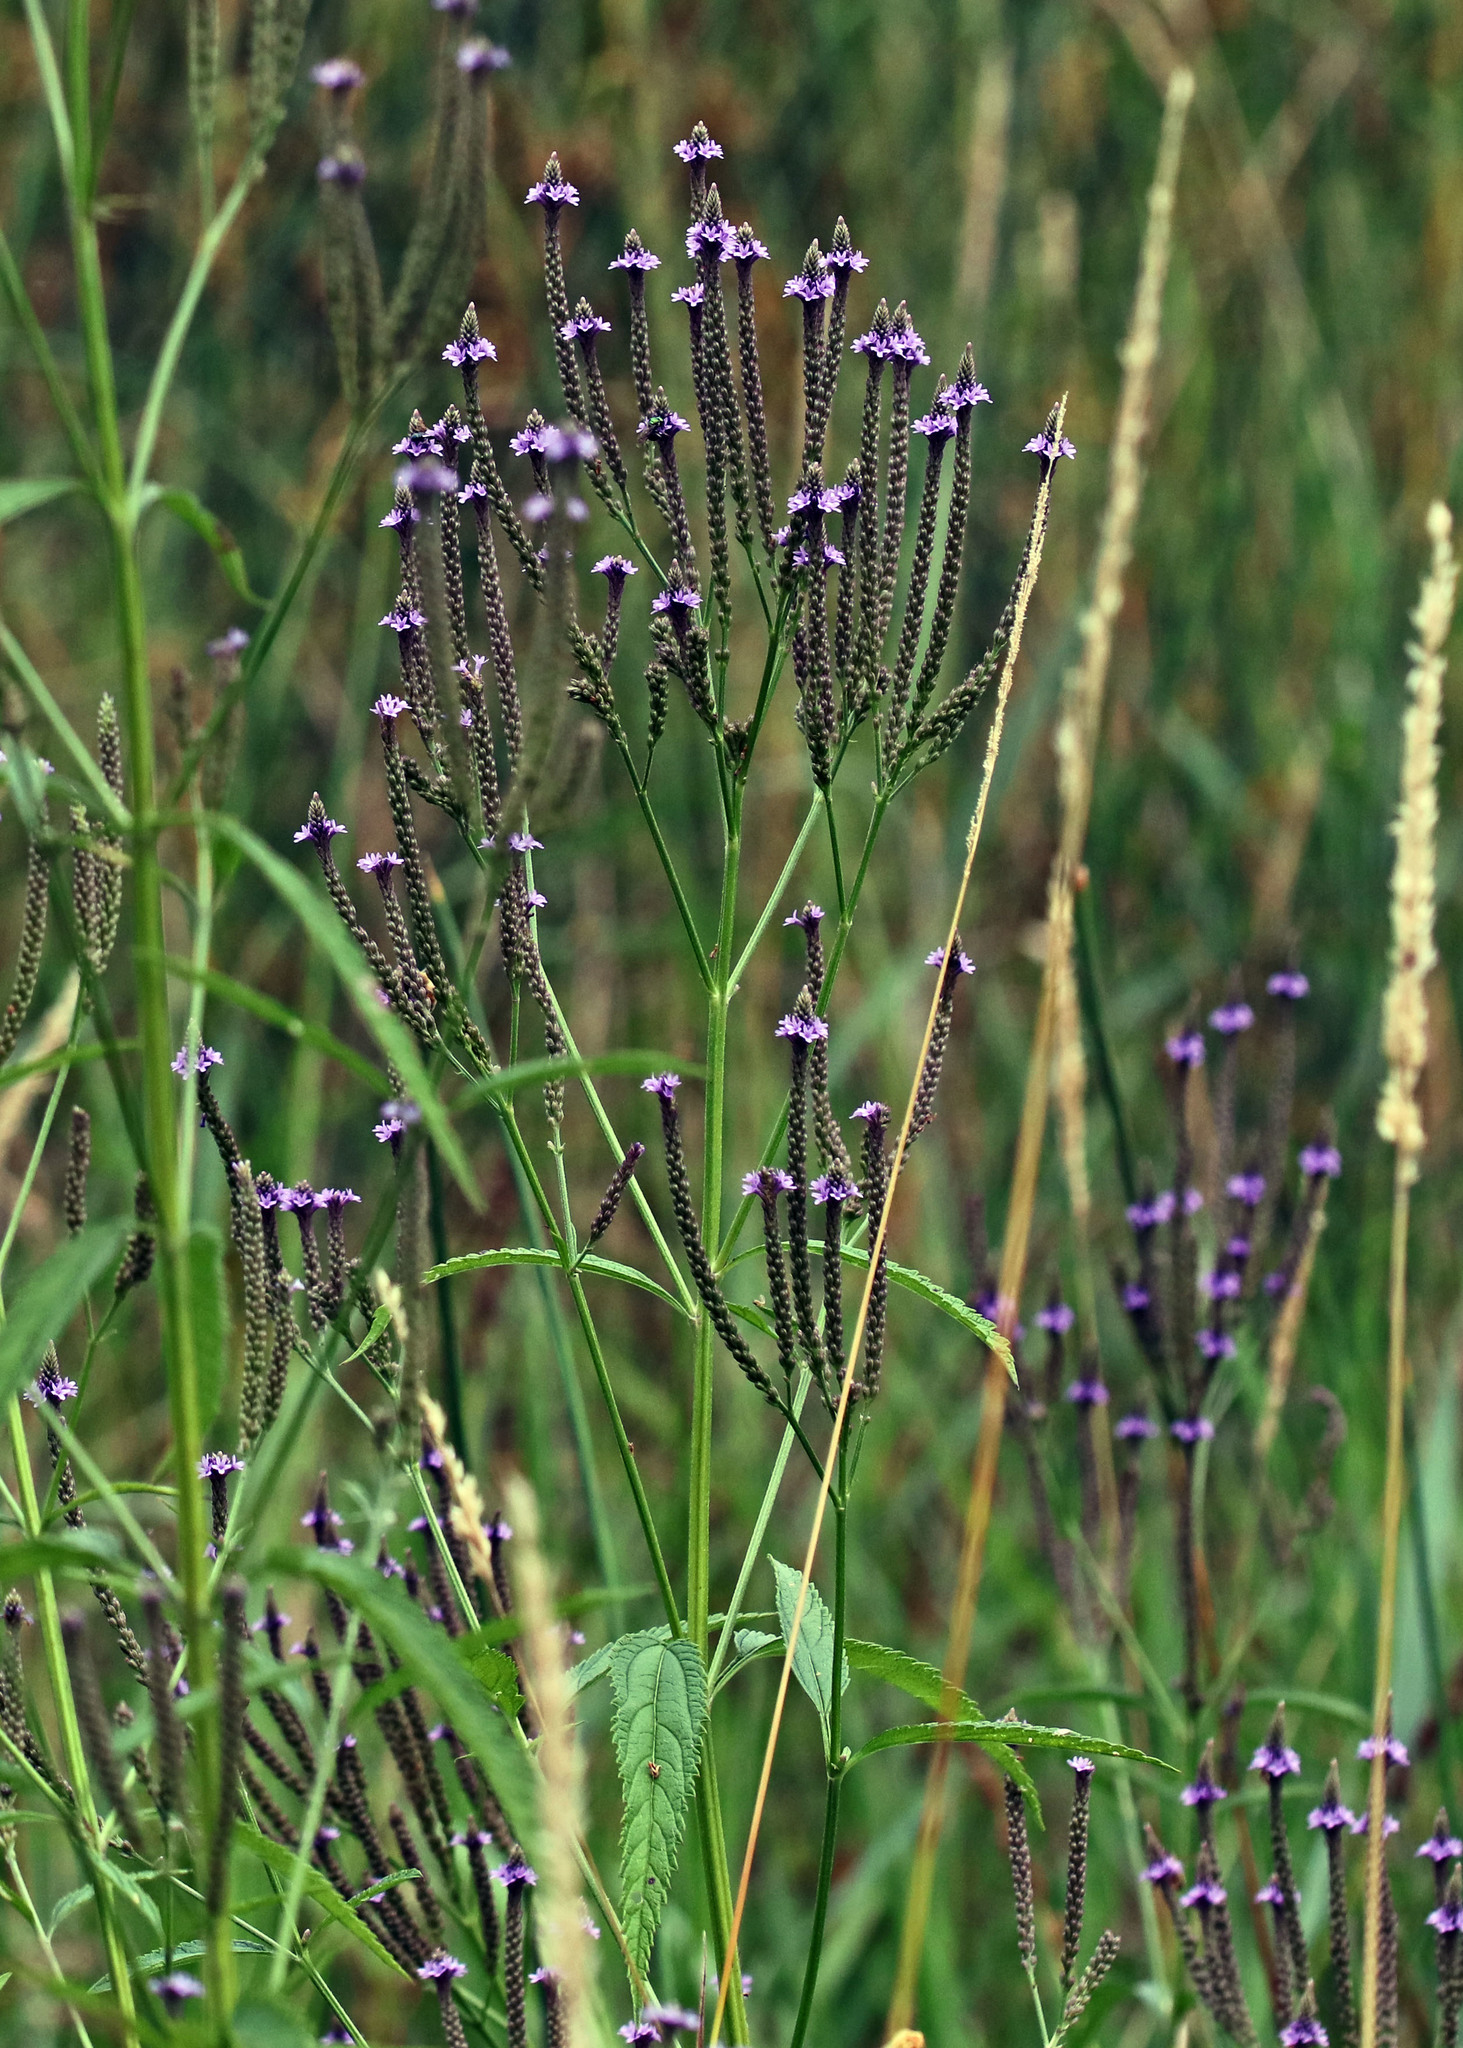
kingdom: Plantae
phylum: Tracheophyta
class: Magnoliopsida
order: Lamiales
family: Verbenaceae
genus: Verbena
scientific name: Verbena hastata
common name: American blue vervain
